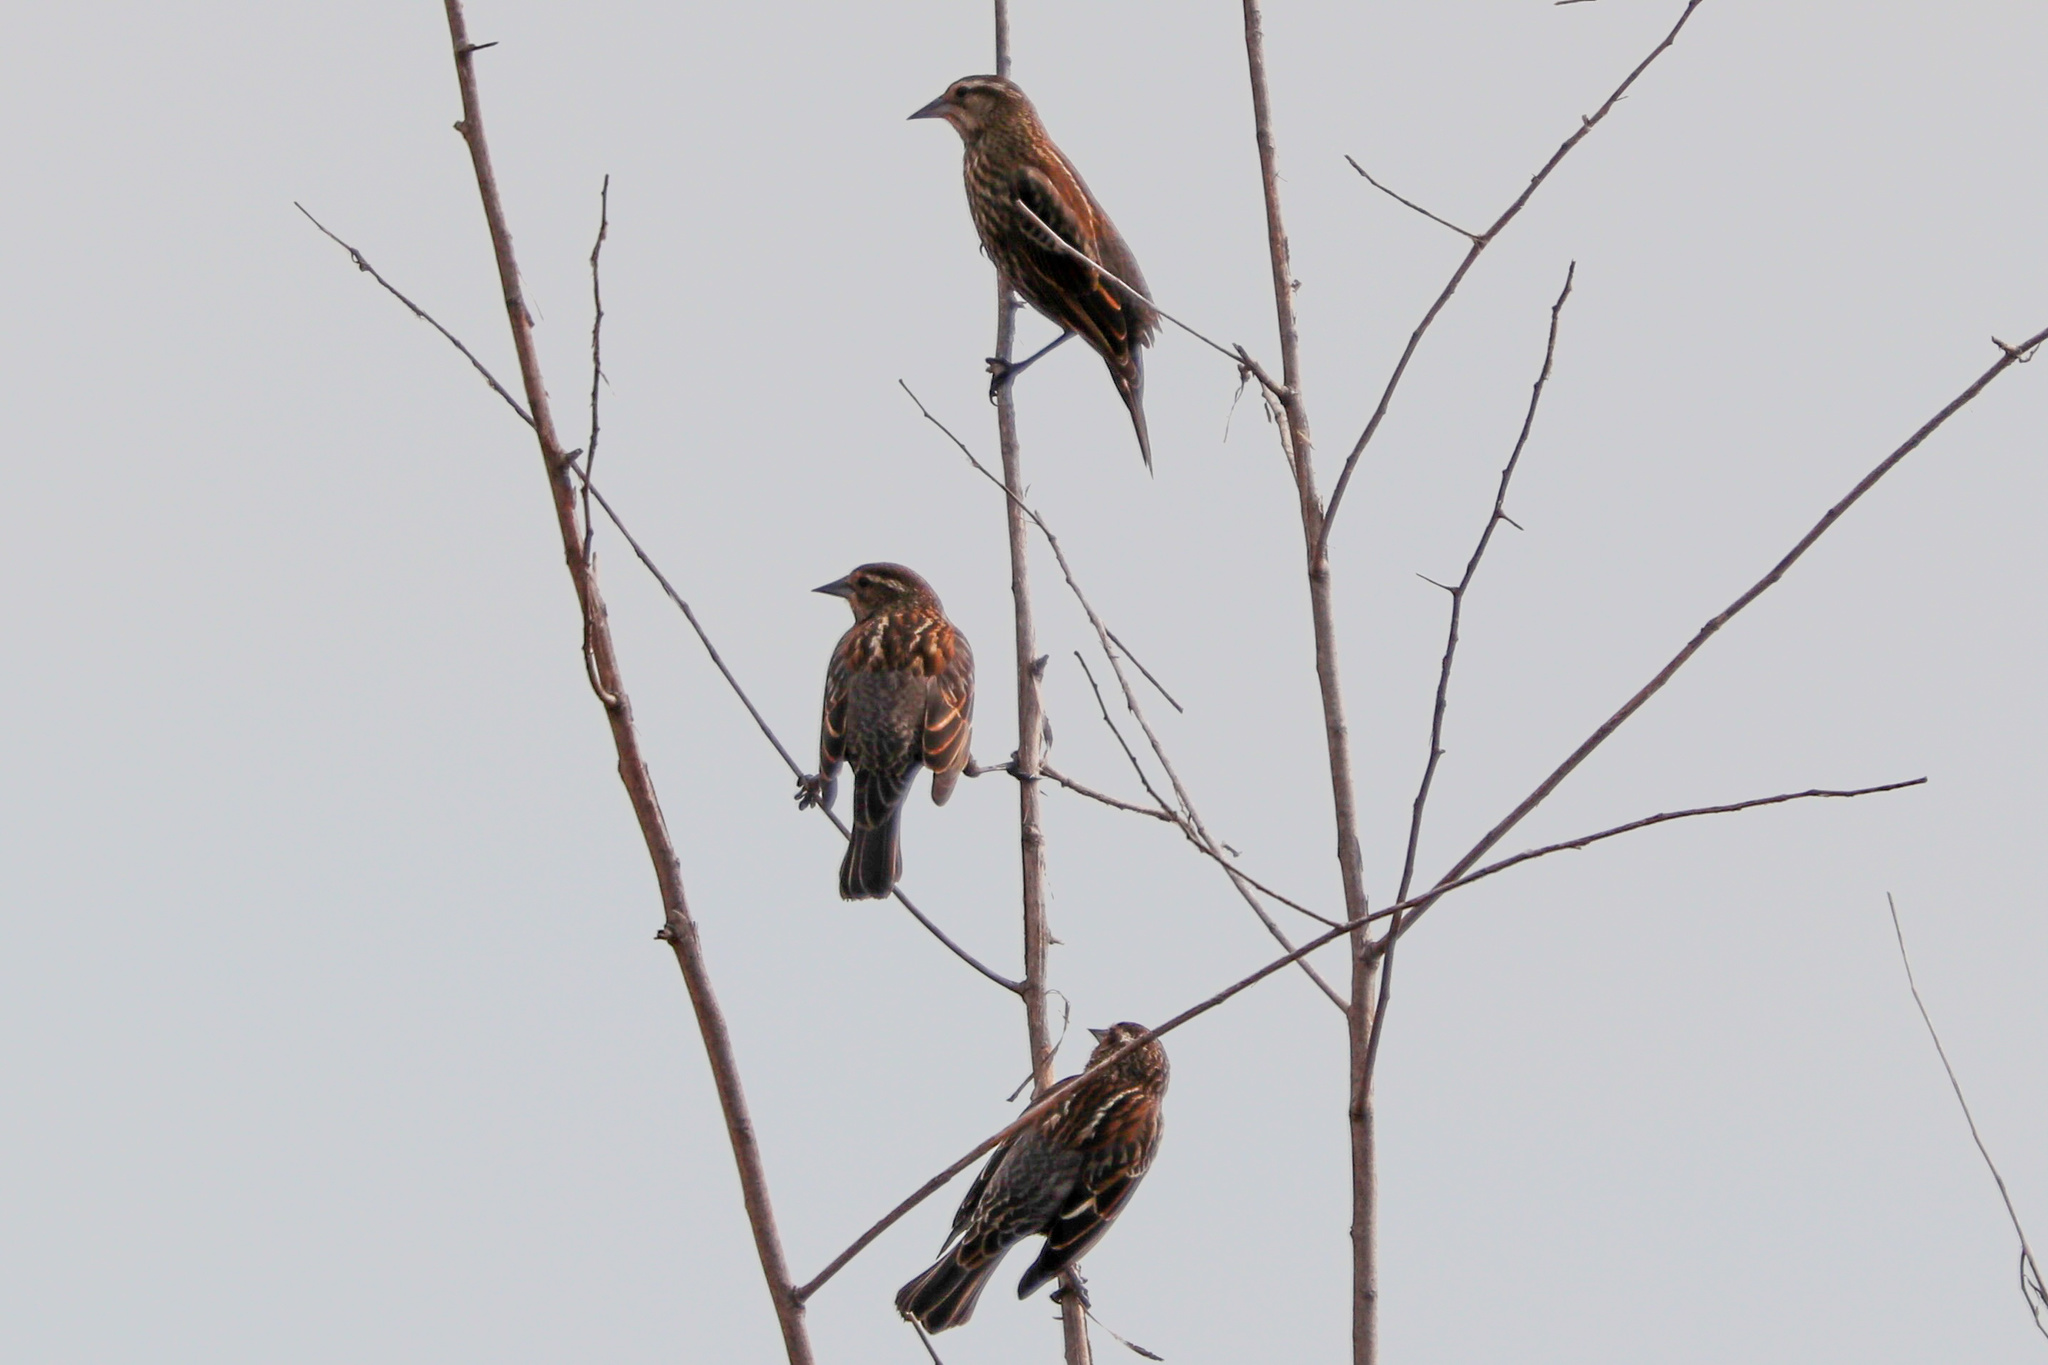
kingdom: Animalia
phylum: Chordata
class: Aves
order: Passeriformes
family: Icteridae
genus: Agelaius
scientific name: Agelaius phoeniceus
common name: Red-winged blackbird
